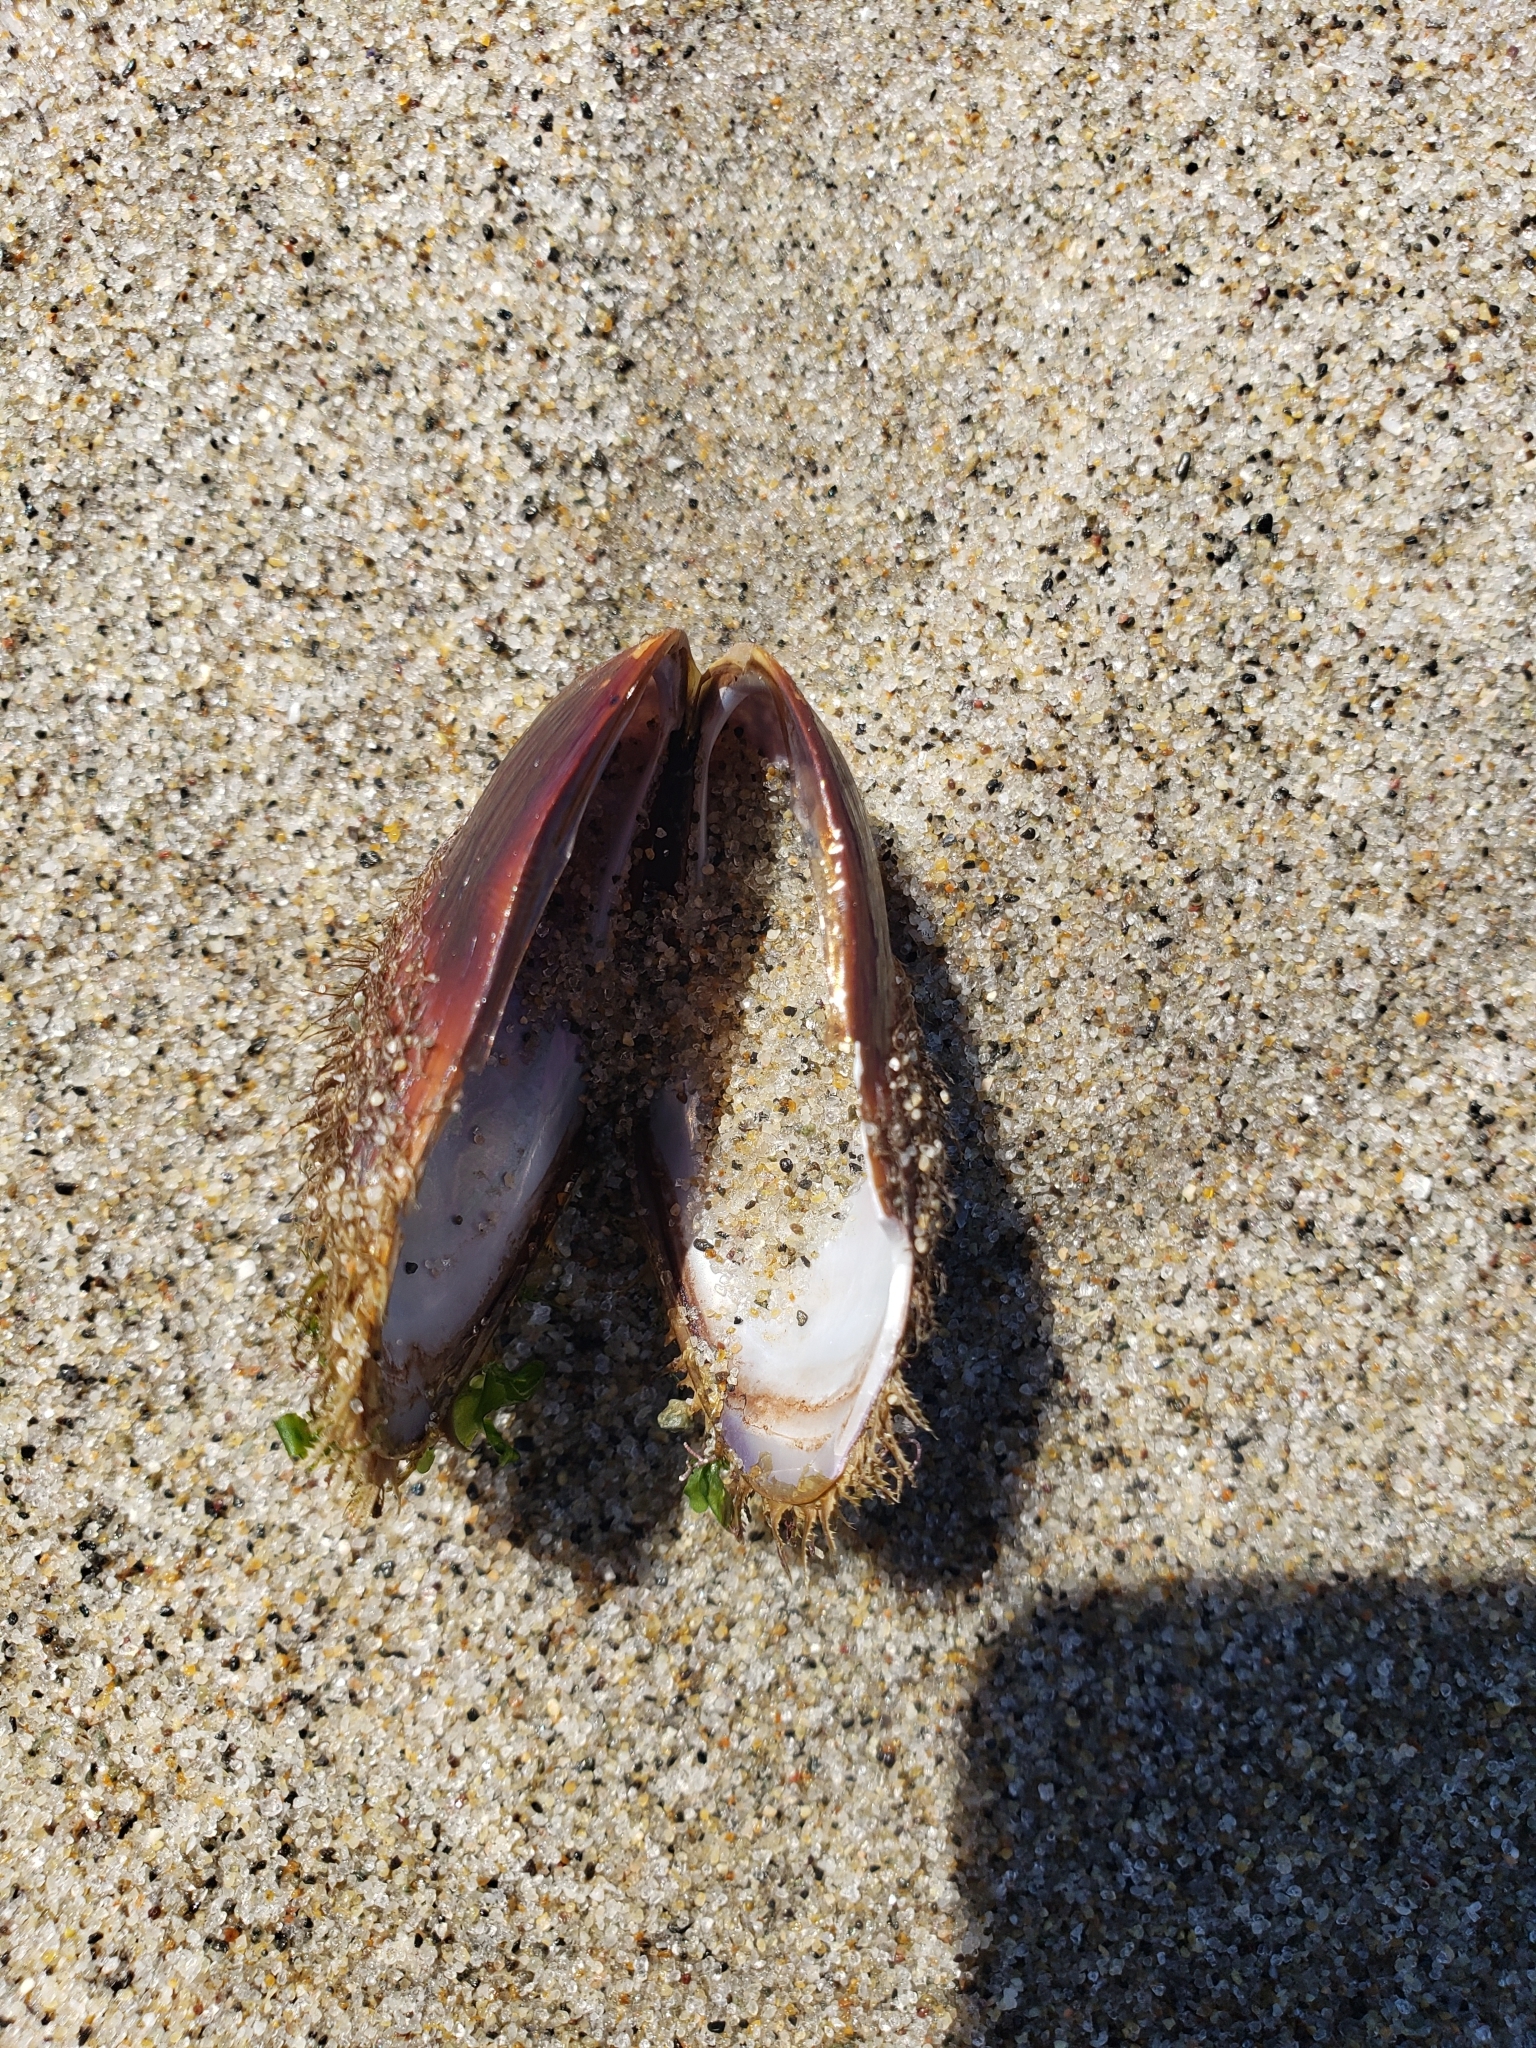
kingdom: Animalia
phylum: Mollusca
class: Bivalvia
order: Mytilida
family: Mytilidae
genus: Modiolus
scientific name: Modiolus capax
